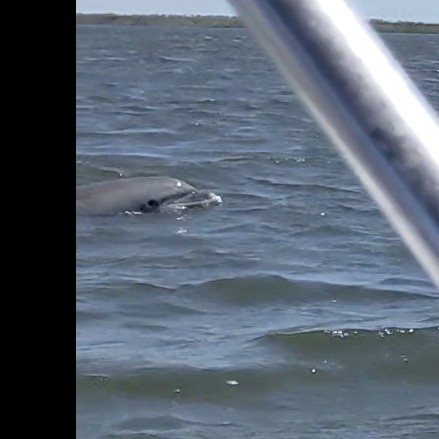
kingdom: Animalia
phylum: Chordata
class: Mammalia
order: Cetacea
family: Delphinidae
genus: Tursiops
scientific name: Tursiops truncatus
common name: Bottlenose dolphin
